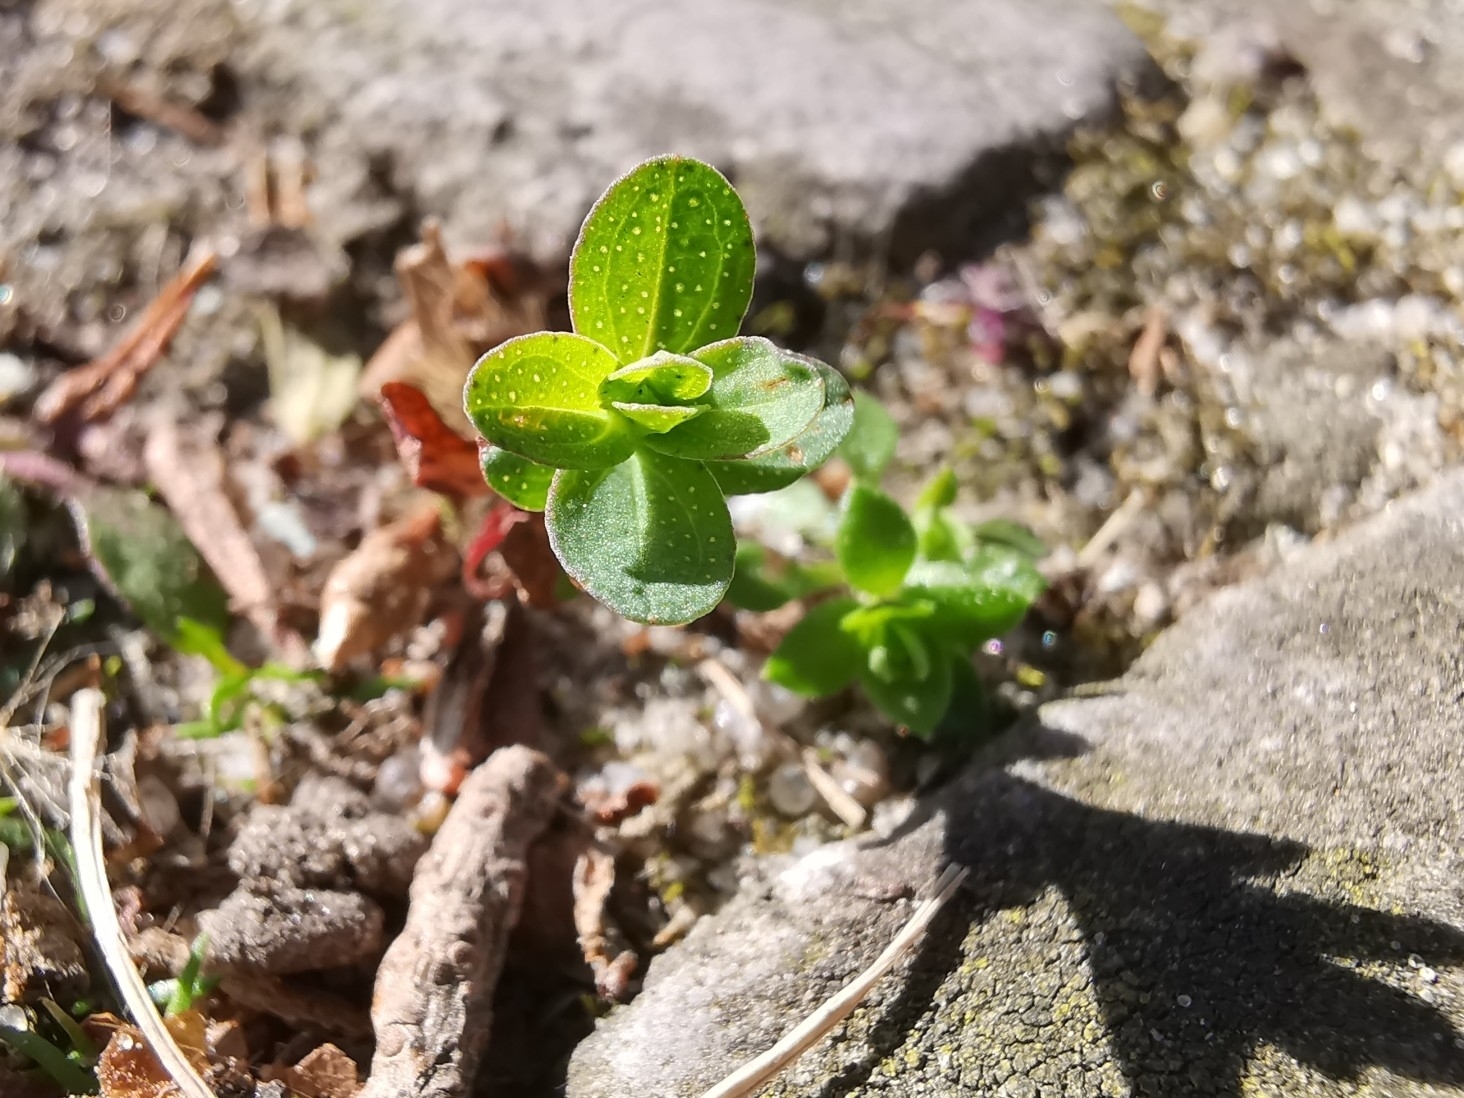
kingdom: Plantae
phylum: Tracheophyta
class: Magnoliopsida
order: Malpighiales
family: Hypericaceae
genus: Hypericum
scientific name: Hypericum perforatum
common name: Common st. johnswort
